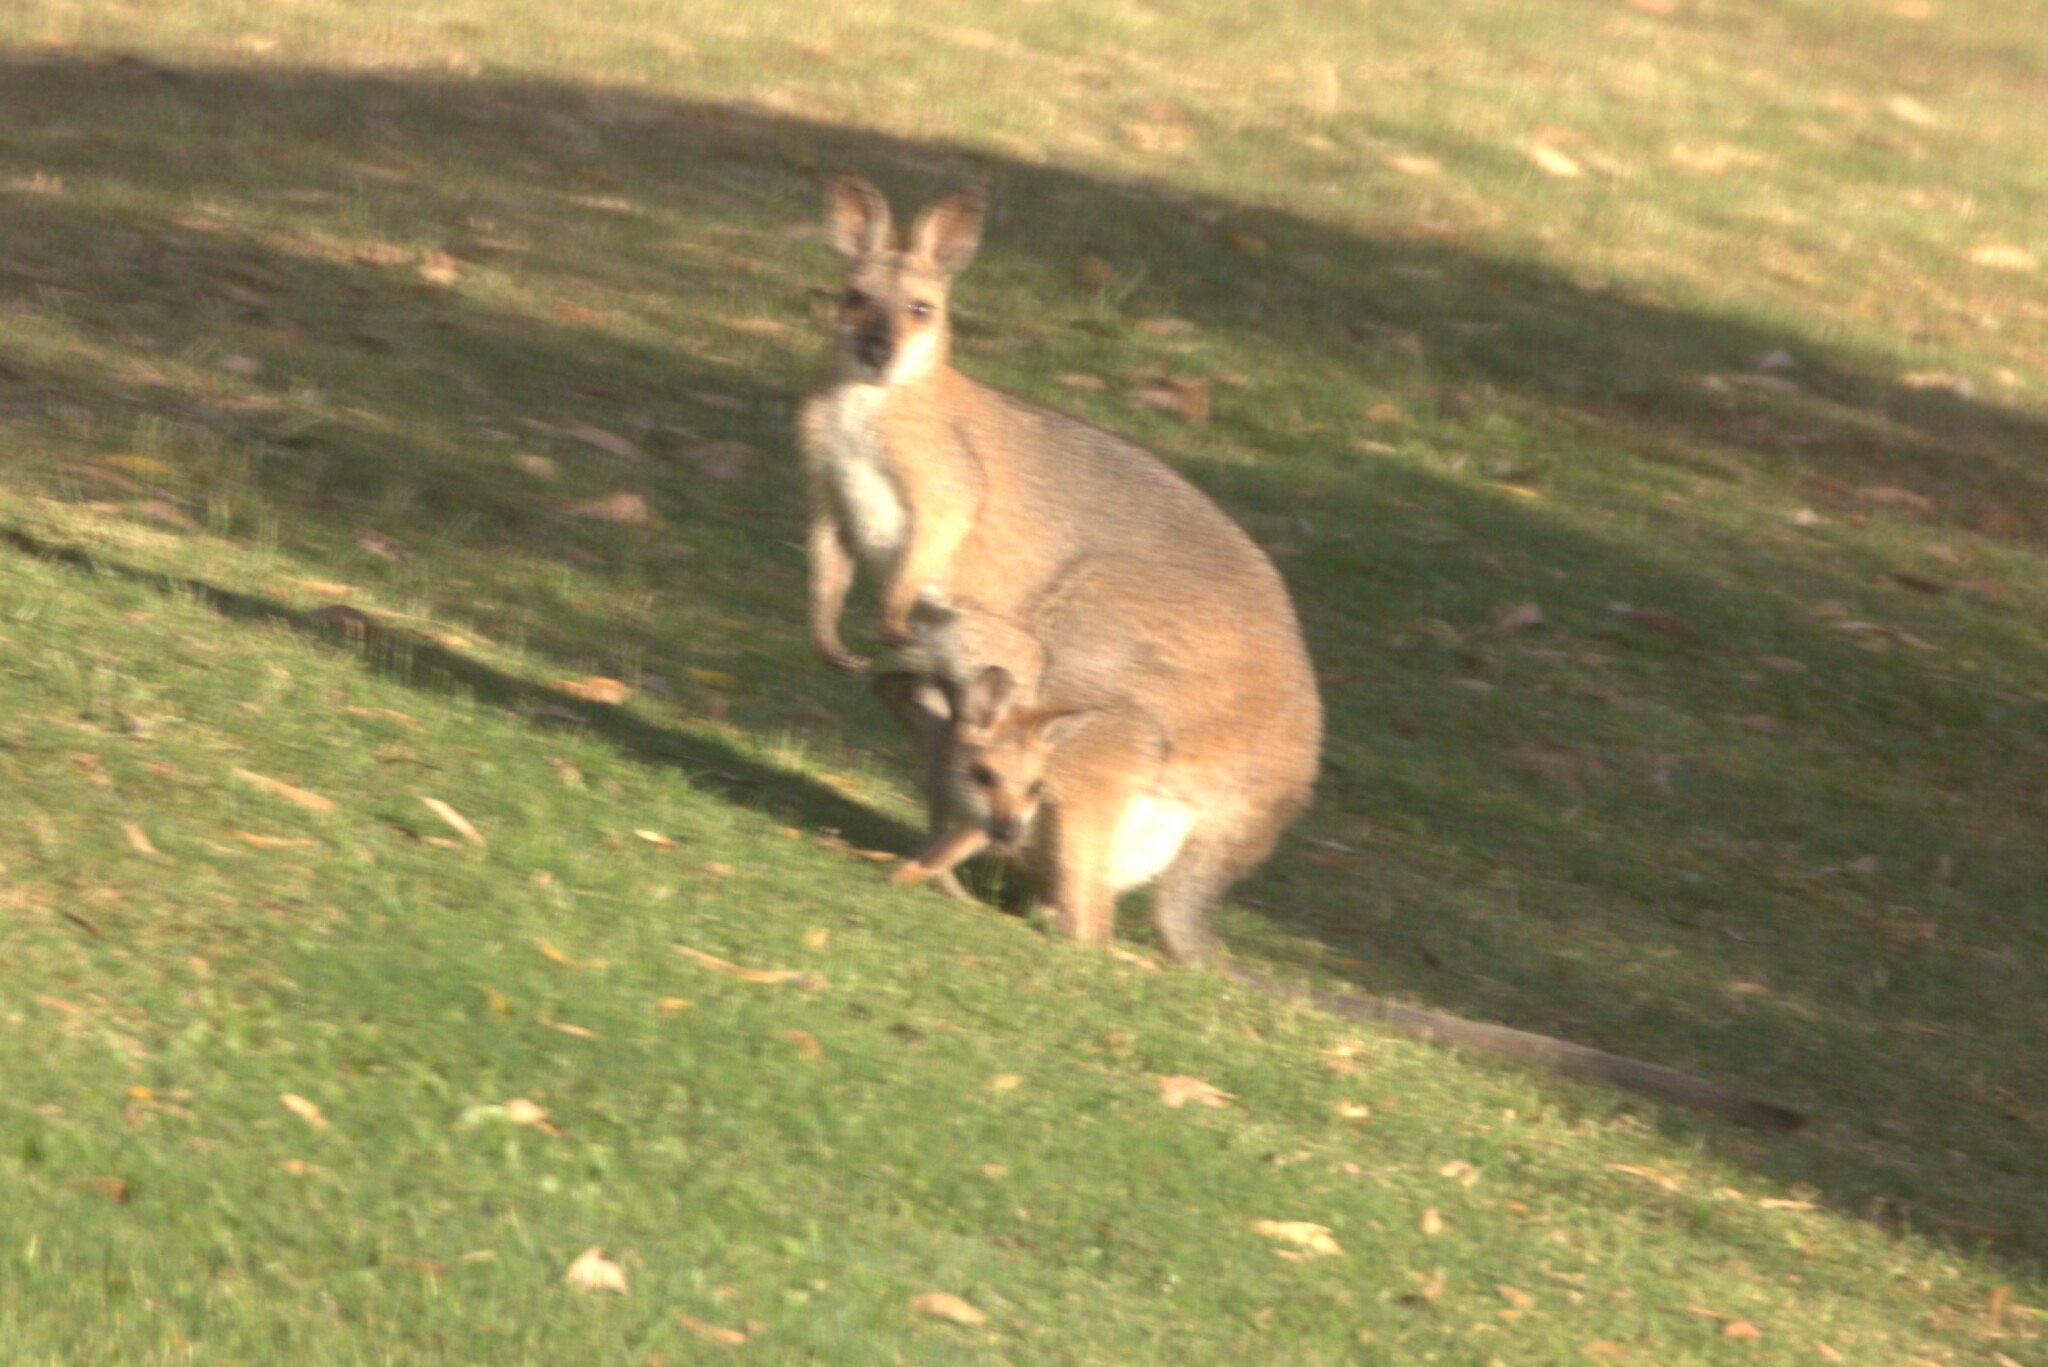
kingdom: Animalia
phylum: Chordata
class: Mammalia
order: Diprotodontia
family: Macropodidae
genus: Notamacropus
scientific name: Notamacropus rufogriseus
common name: Red-necked wallaby
